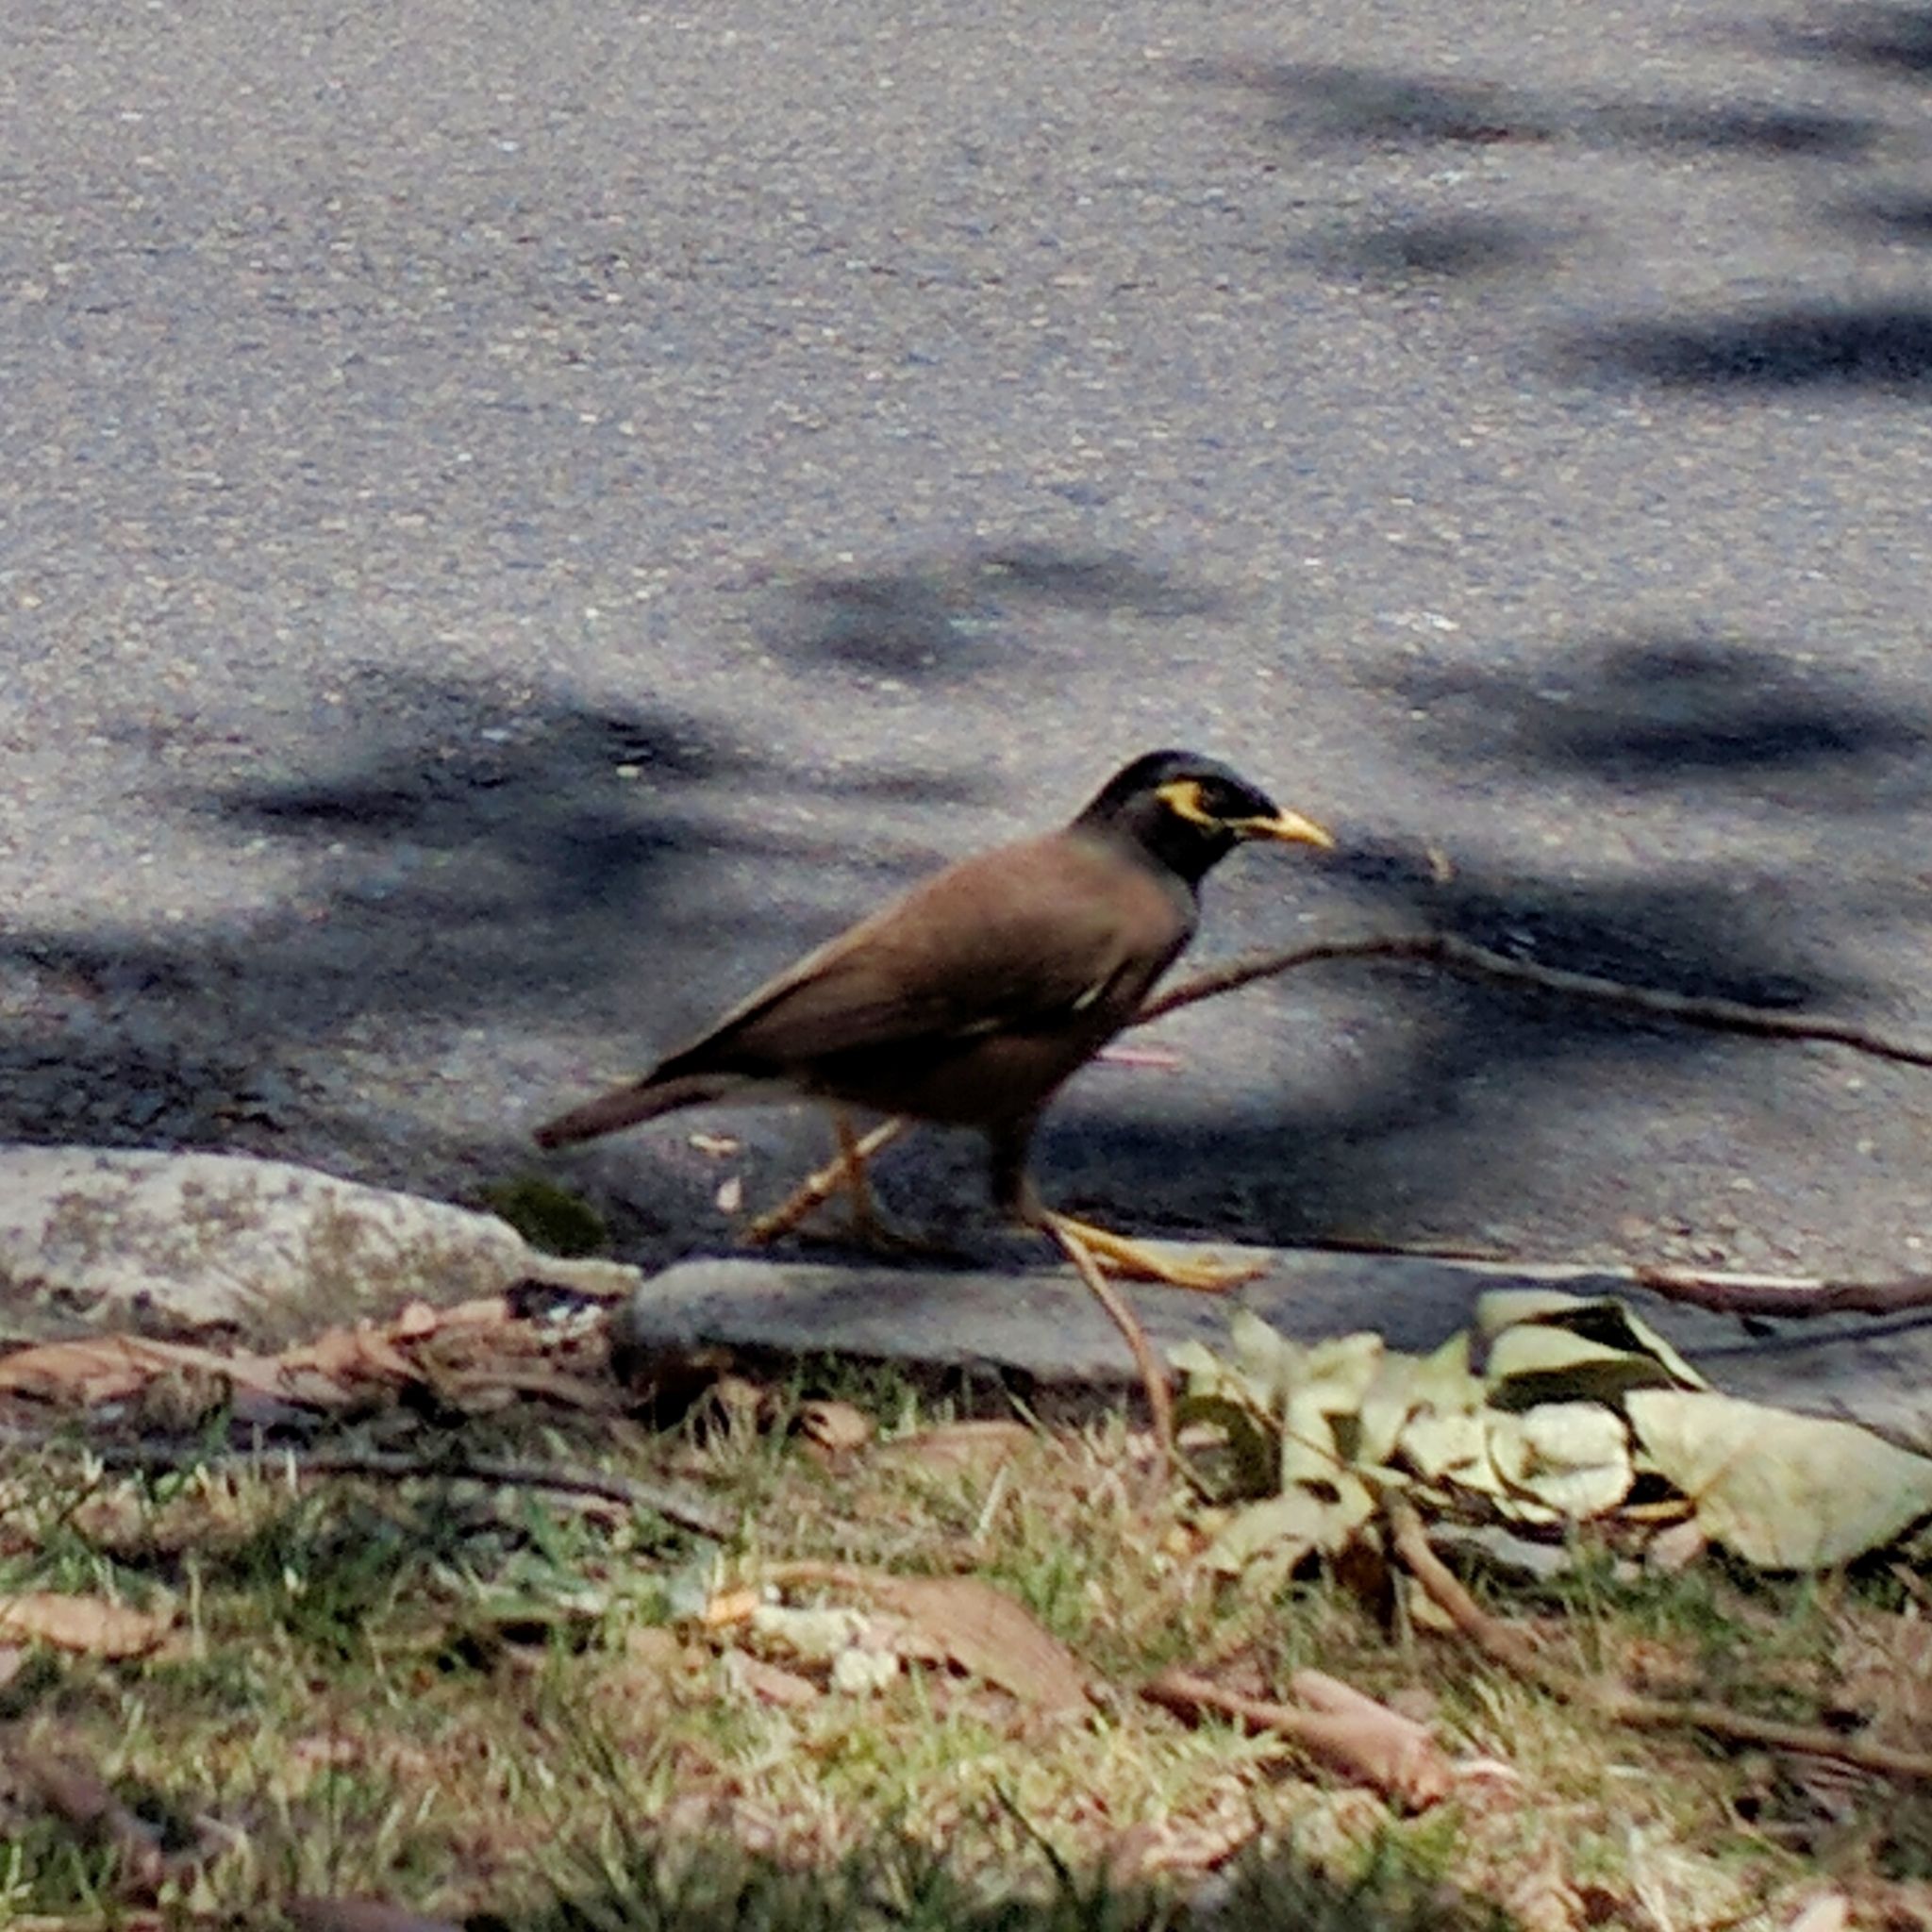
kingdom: Animalia
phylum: Chordata
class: Aves
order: Passeriformes
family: Sturnidae
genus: Acridotheres
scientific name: Acridotheres tristis
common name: Common myna
